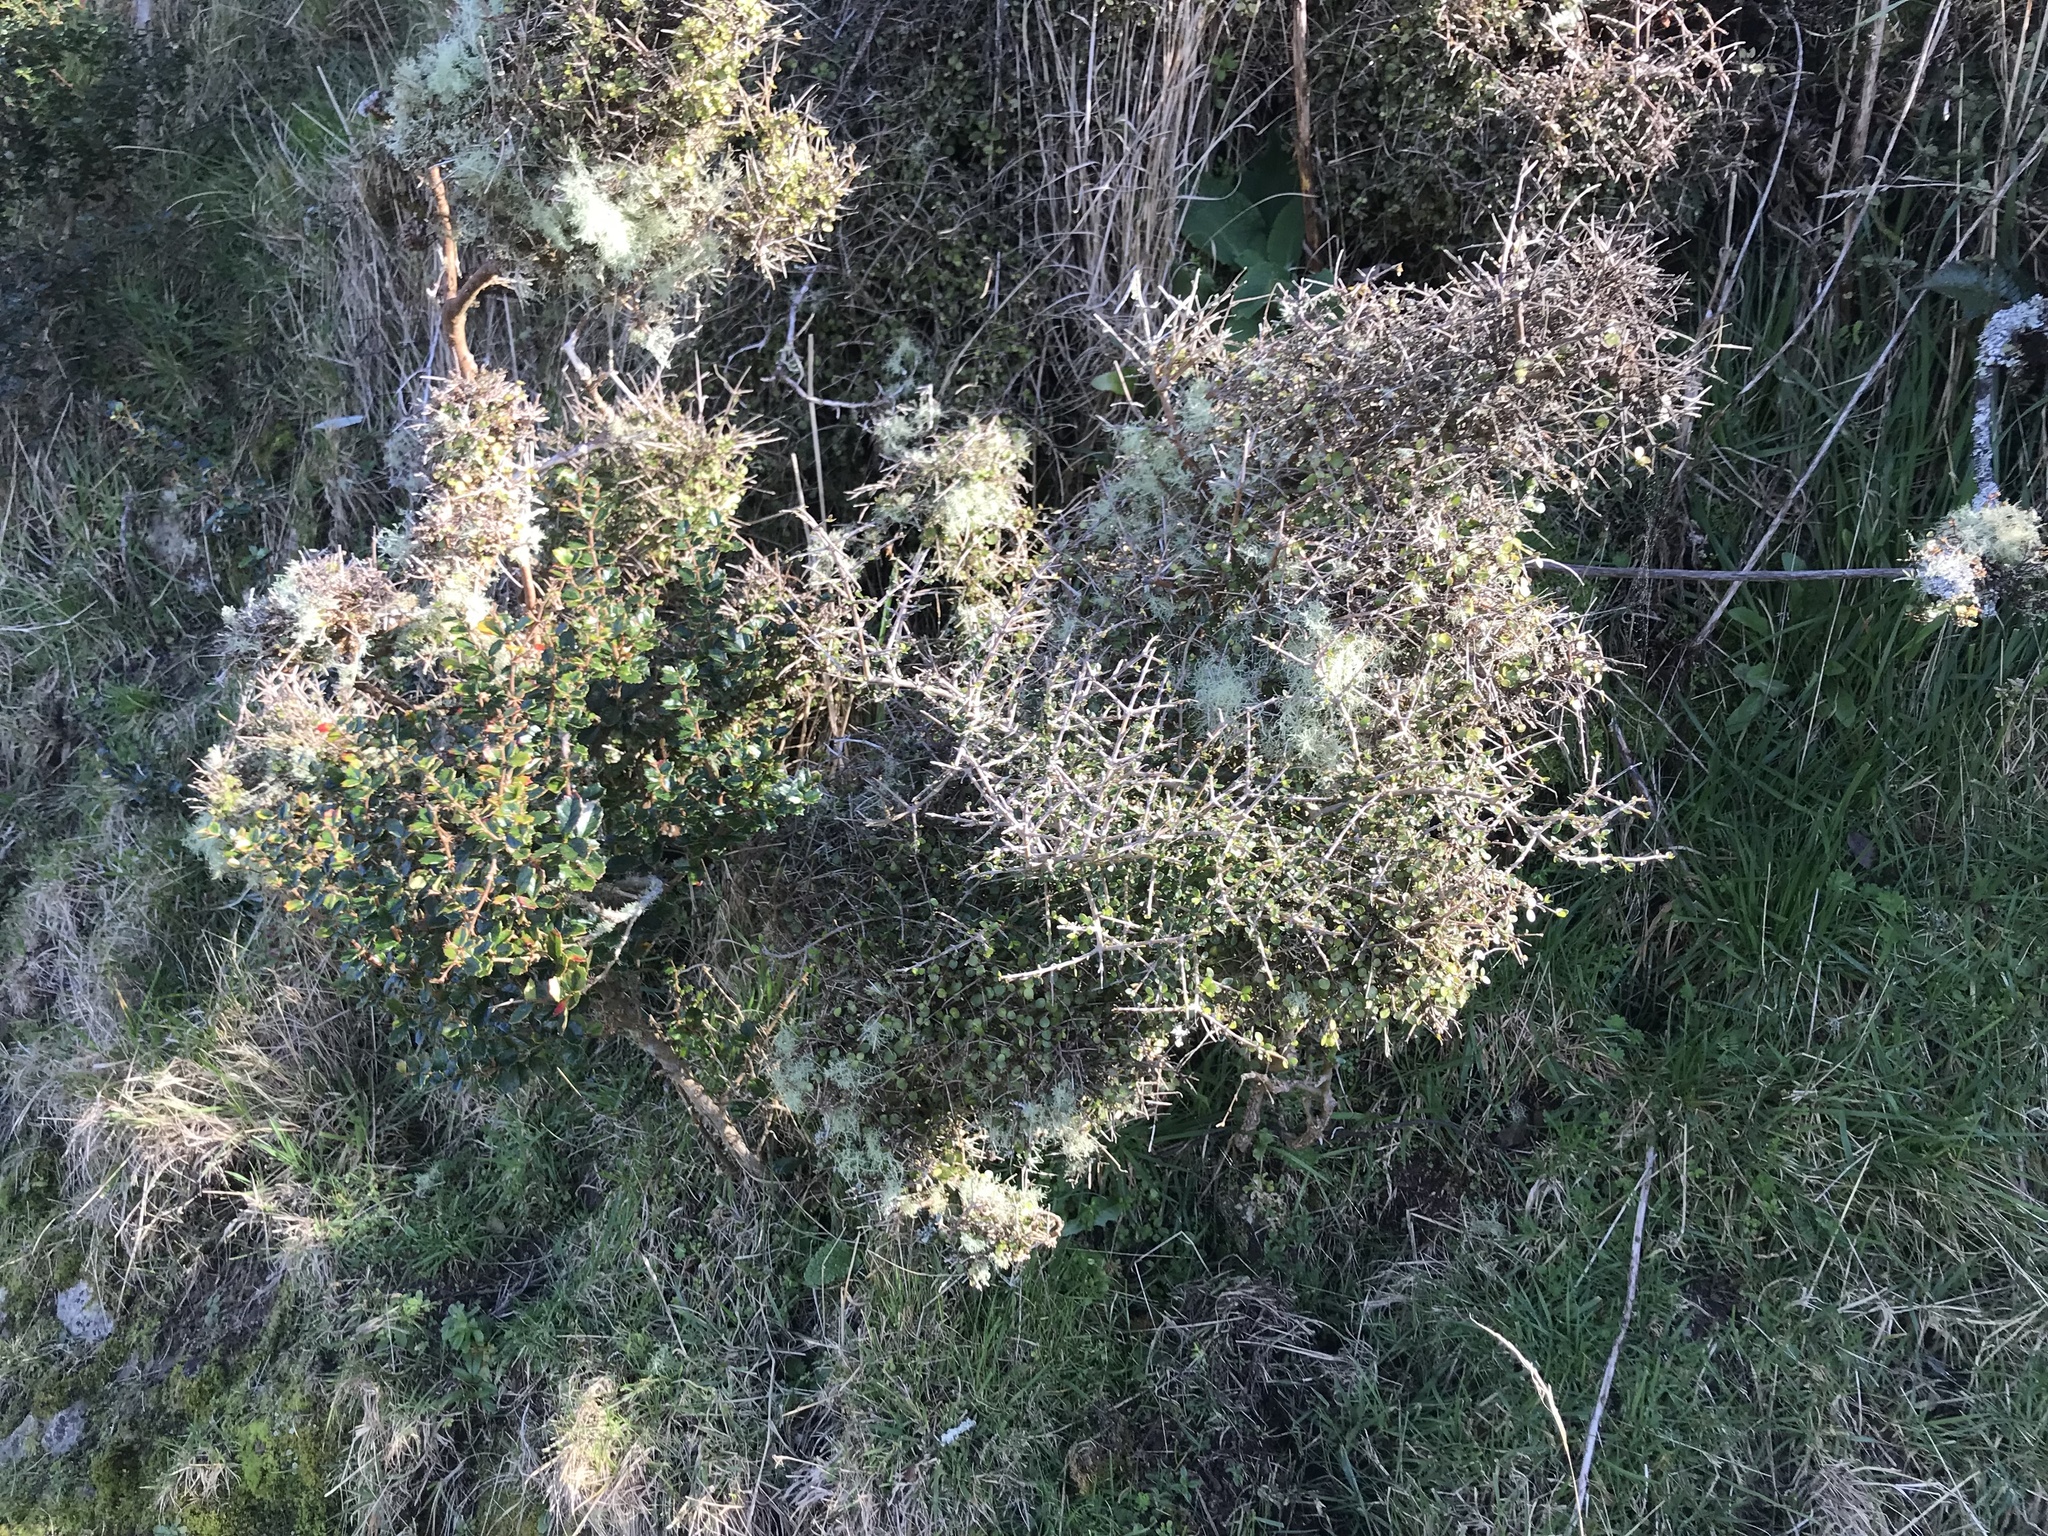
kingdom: Plantae
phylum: Tracheophyta
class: Magnoliopsida
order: Gentianales
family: Rubiaceae
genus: Coprosma
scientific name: Coprosma rhamnoides
